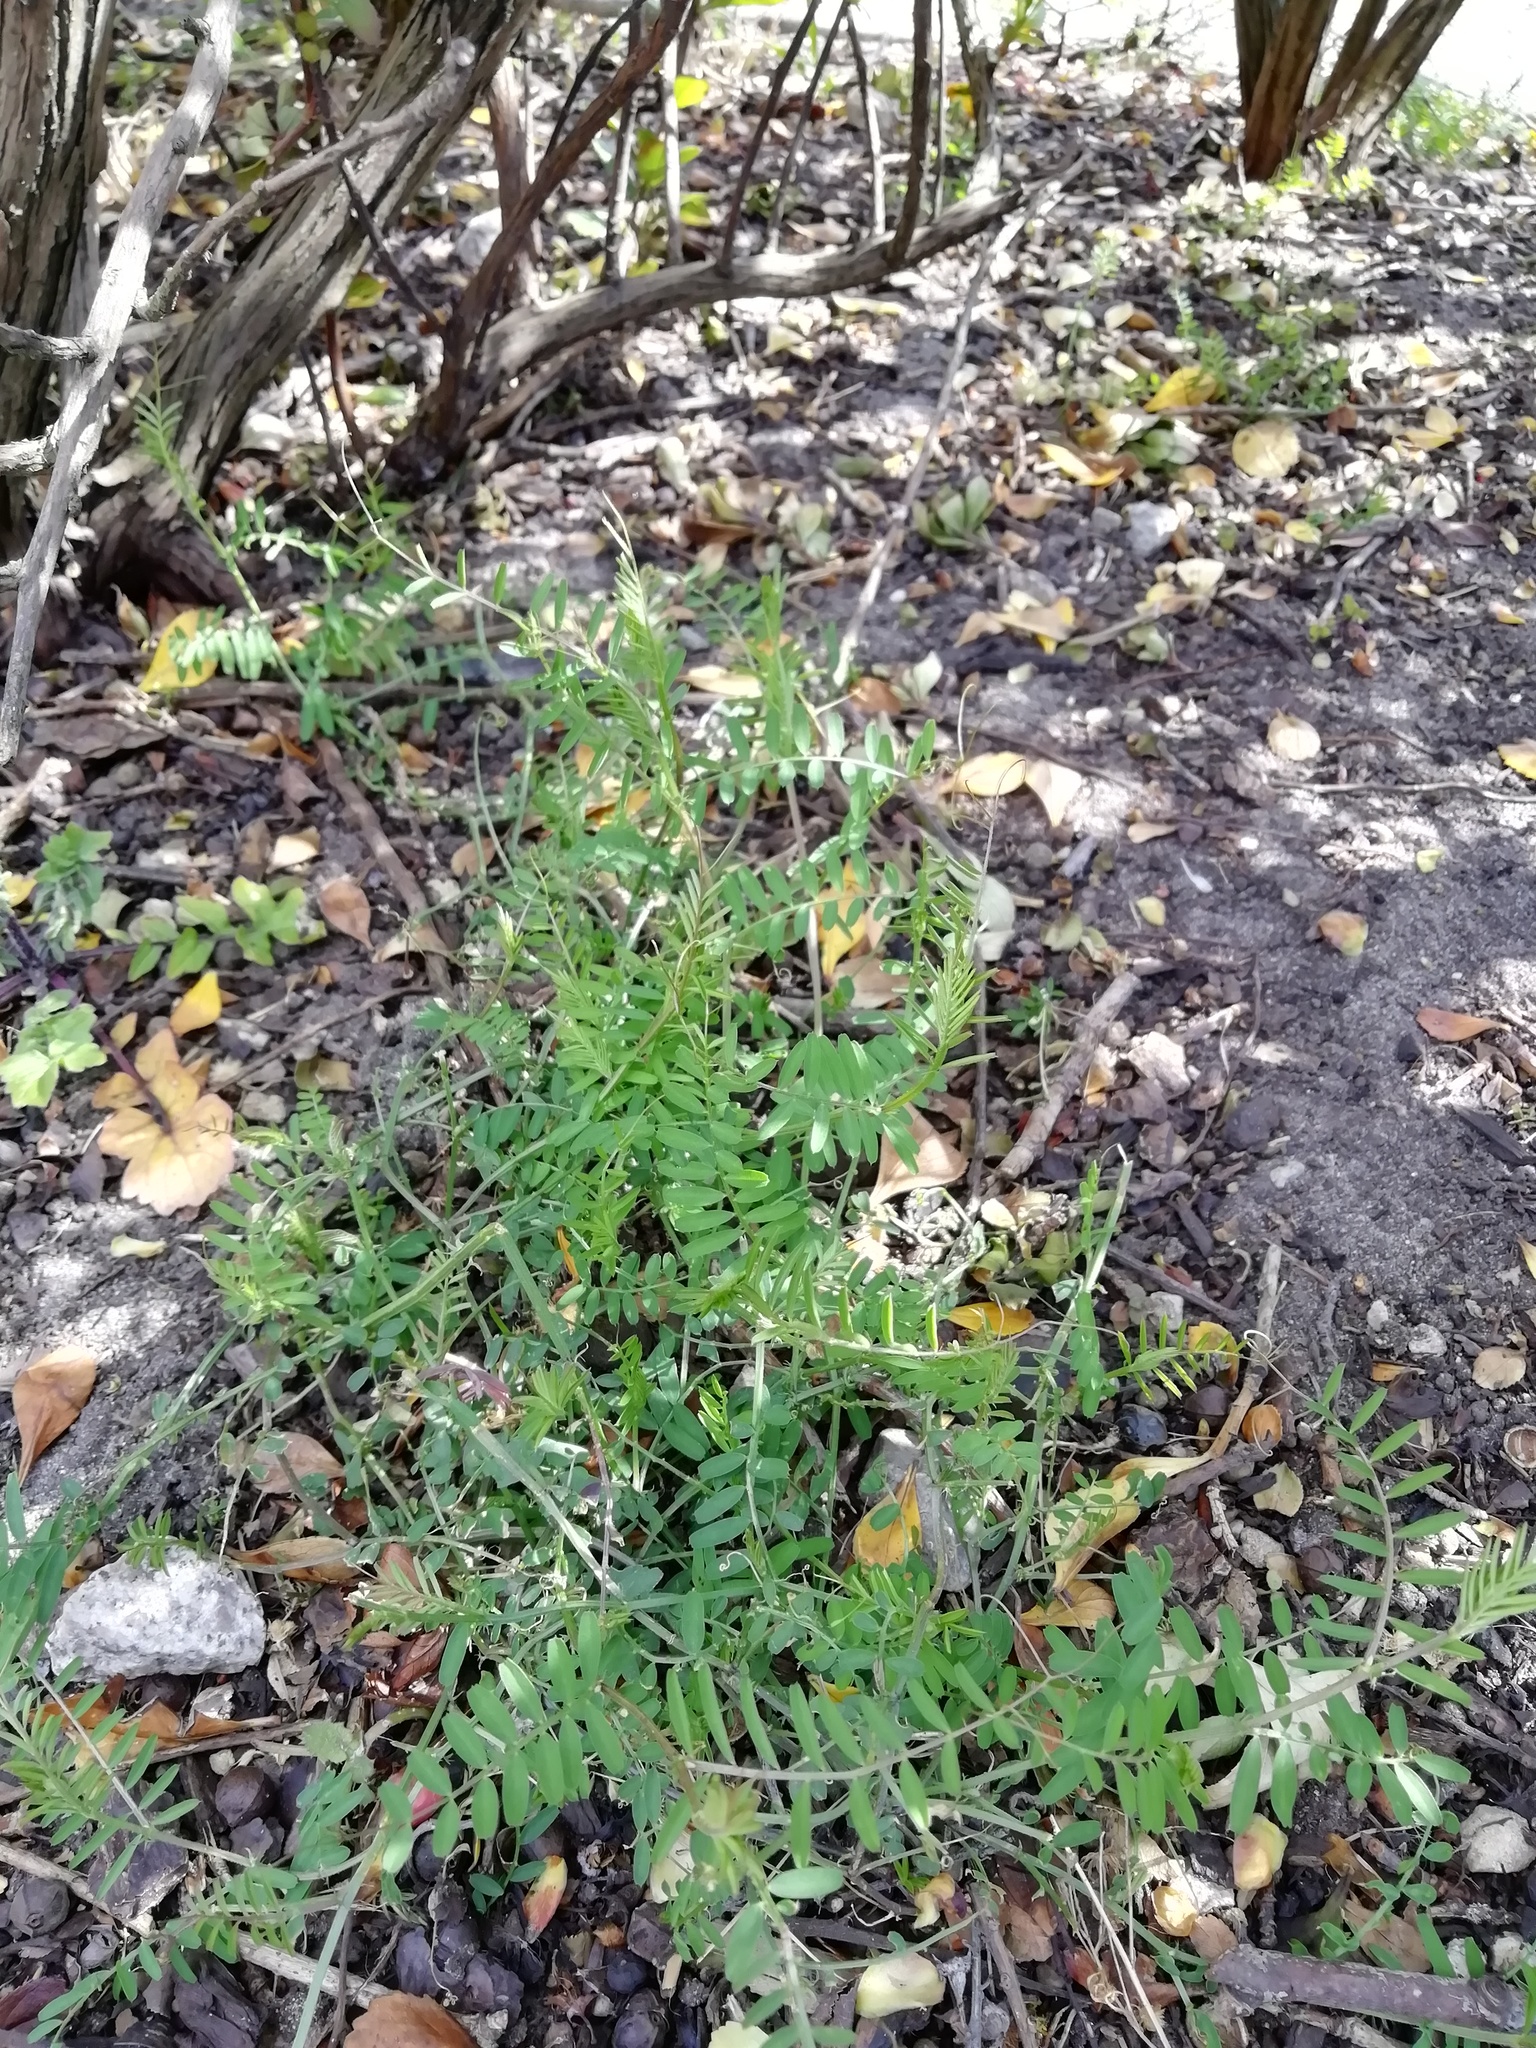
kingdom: Plantae
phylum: Tracheophyta
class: Magnoliopsida
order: Fabales
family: Fabaceae
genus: Vicia
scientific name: Vicia hirsuta
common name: Tiny vetch
